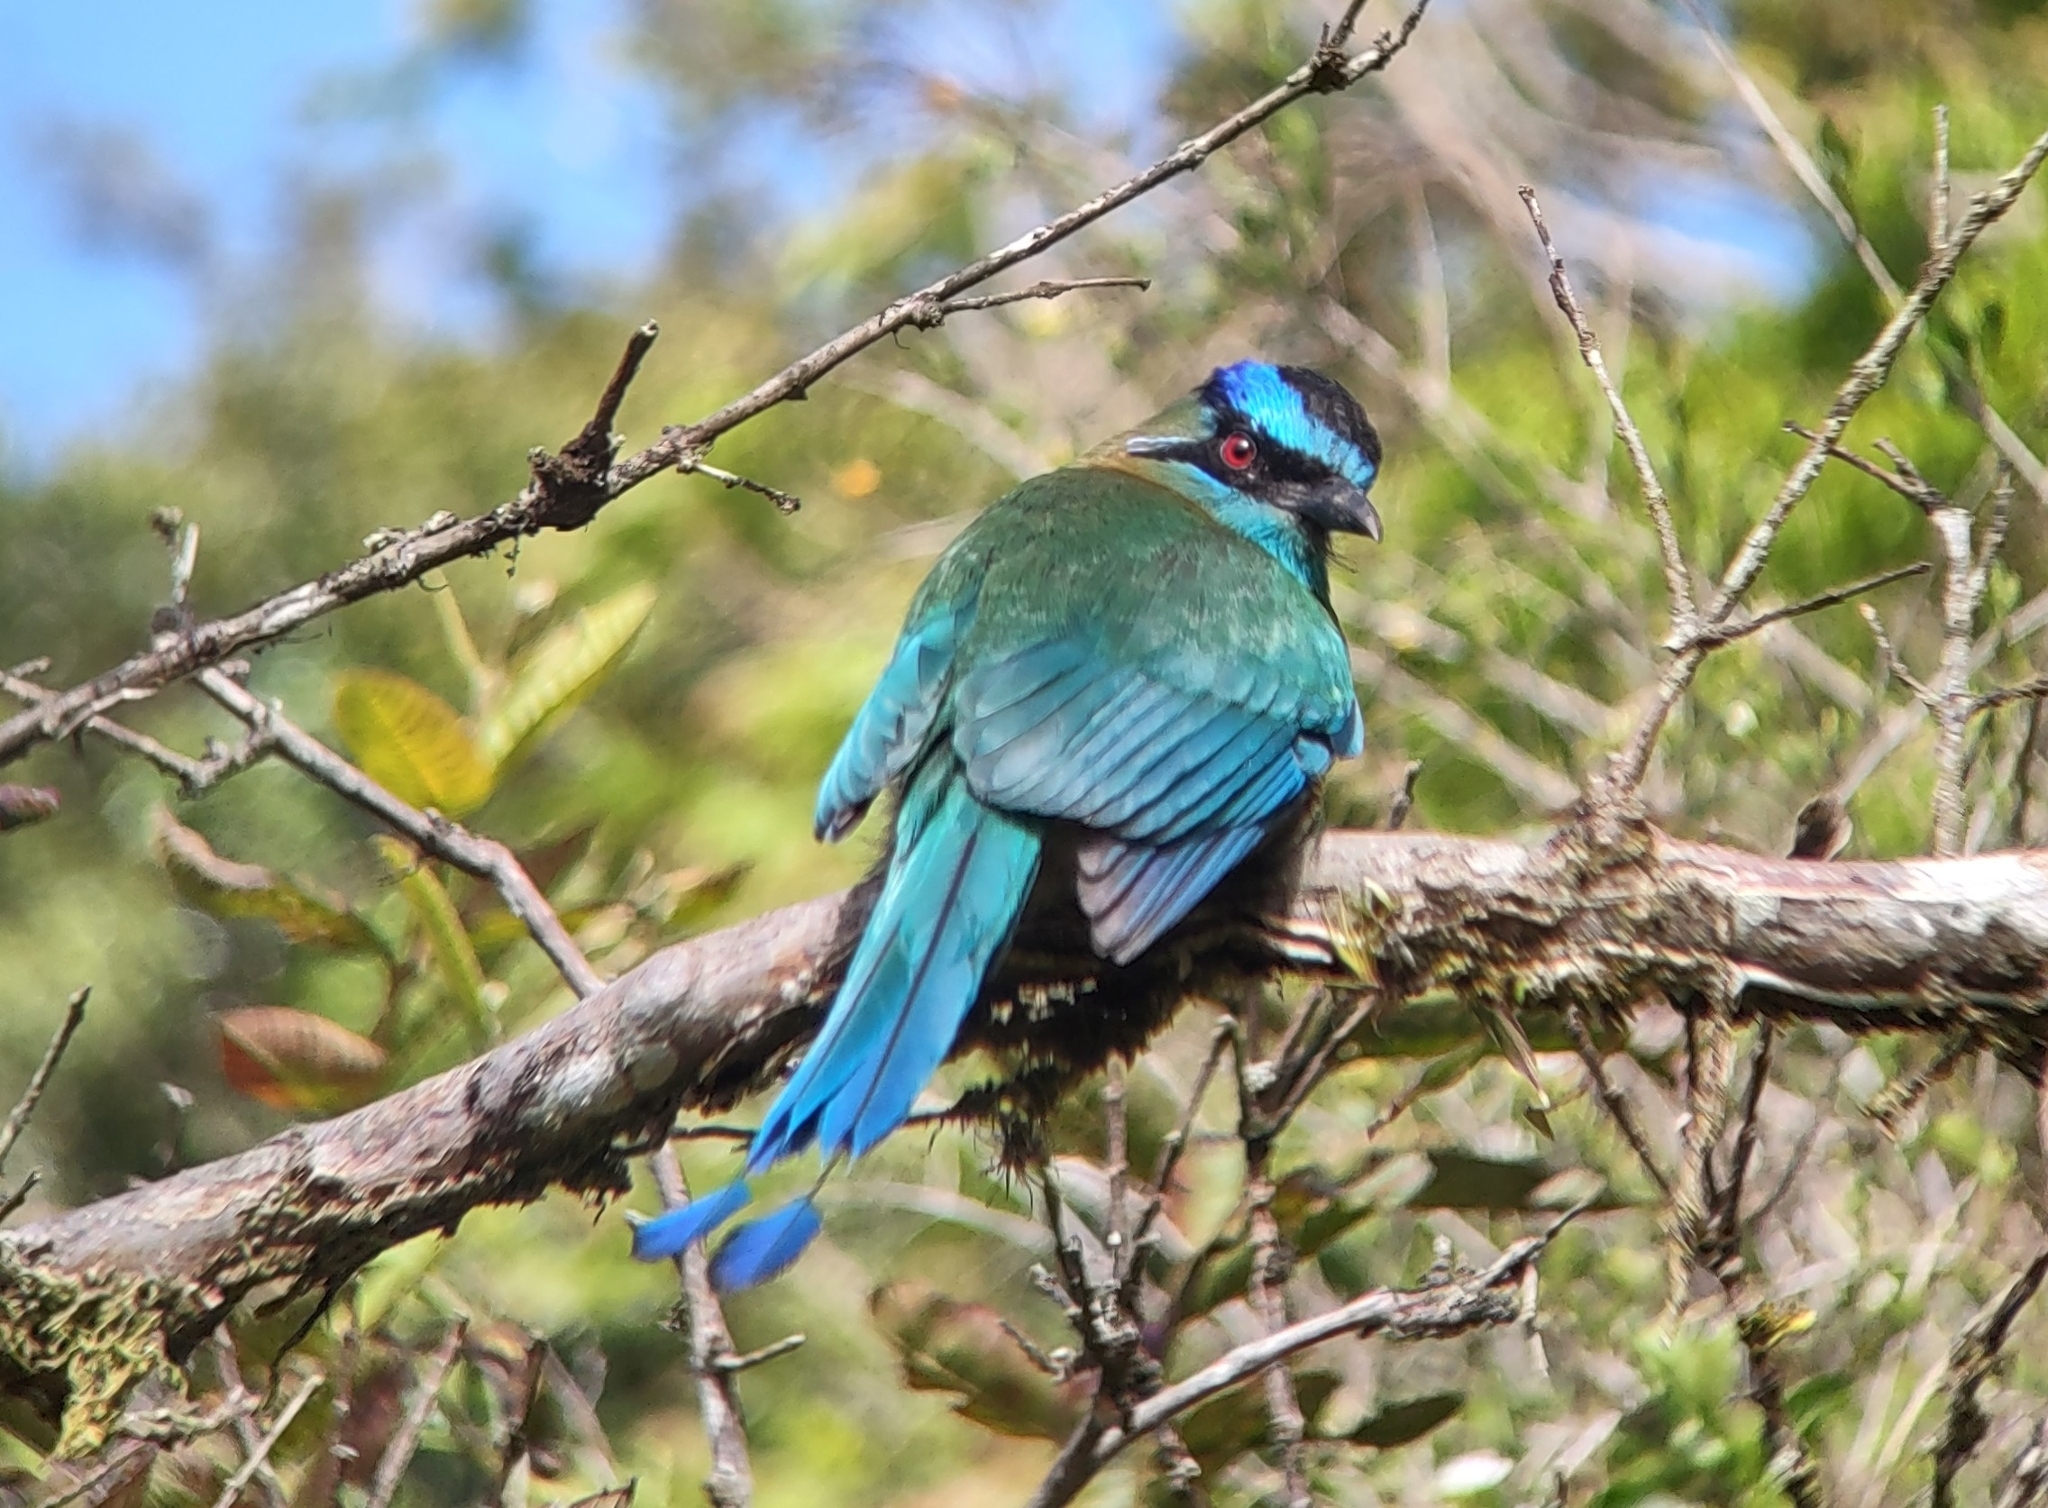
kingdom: Animalia
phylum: Chordata
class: Aves
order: Coraciiformes
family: Momotidae
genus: Momotus
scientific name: Momotus lessonii
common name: Lesson's motmot
